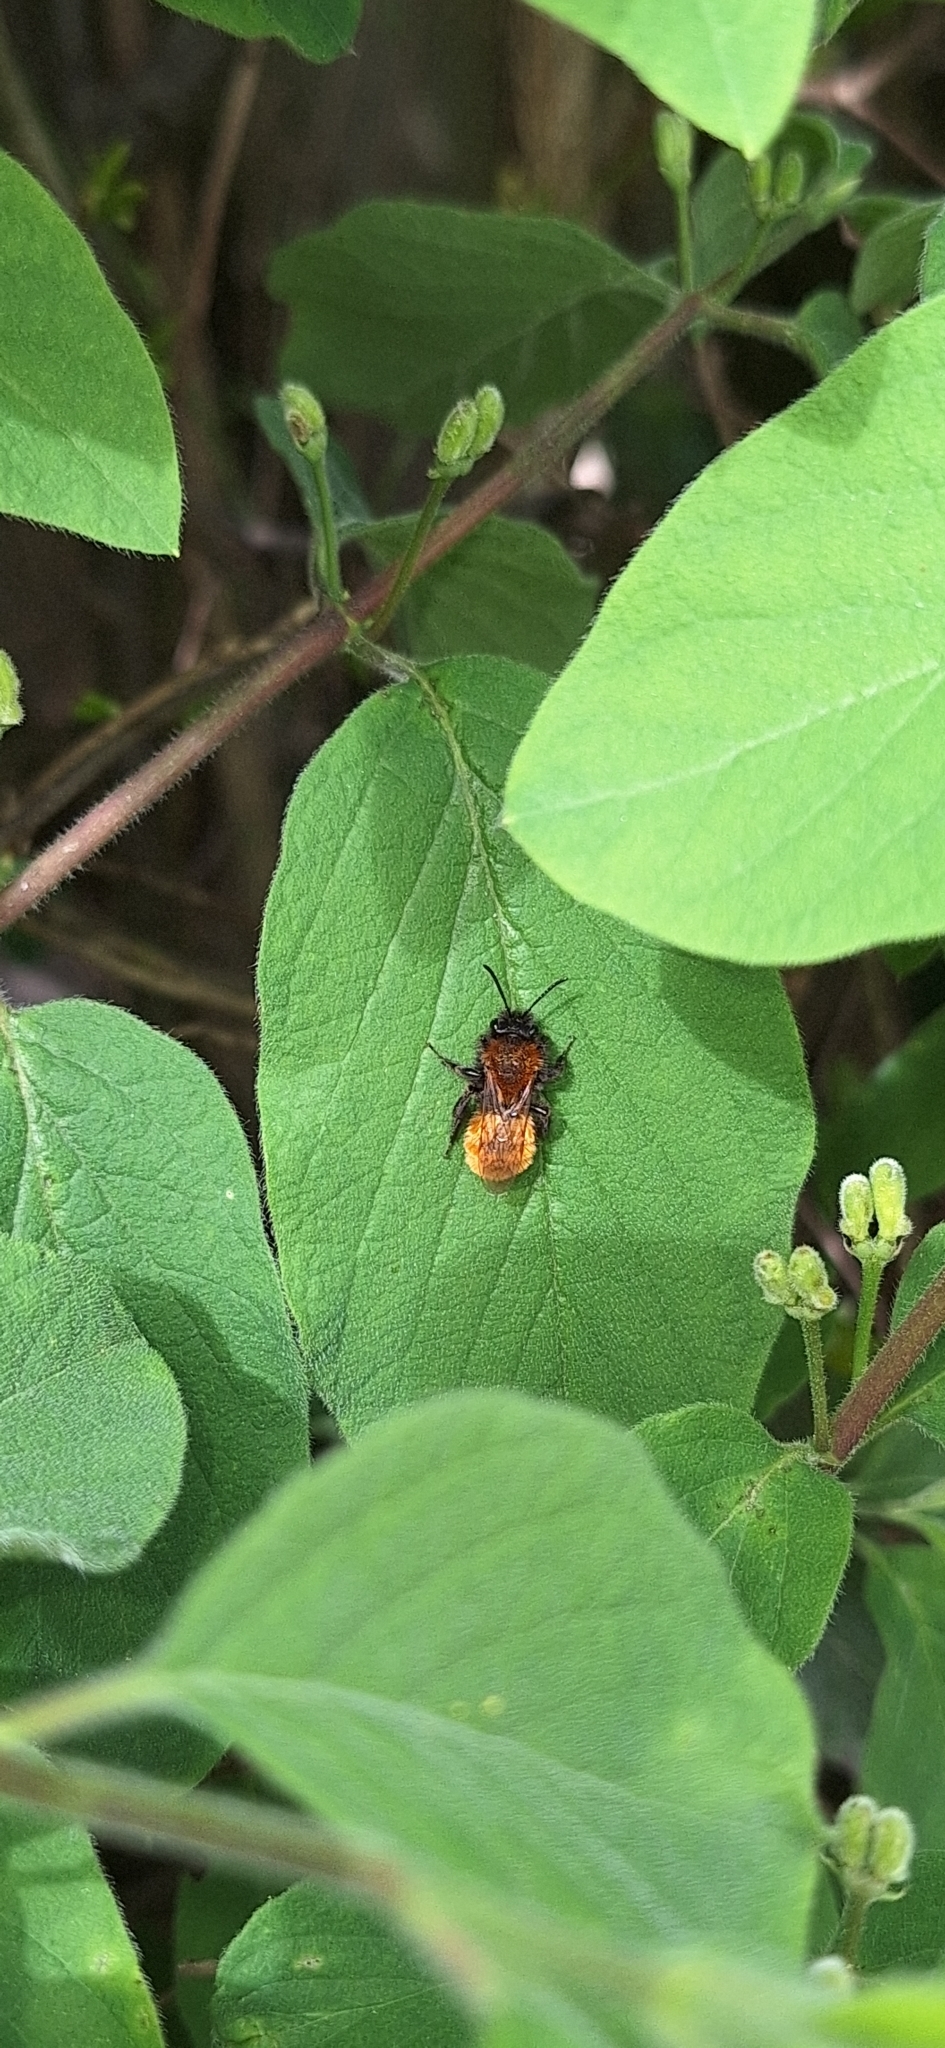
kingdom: Animalia
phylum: Arthropoda
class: Insecta
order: Hymenoptera
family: Andrenidae
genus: Andrena
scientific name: Andrena fulva
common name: Tawny mining bee
